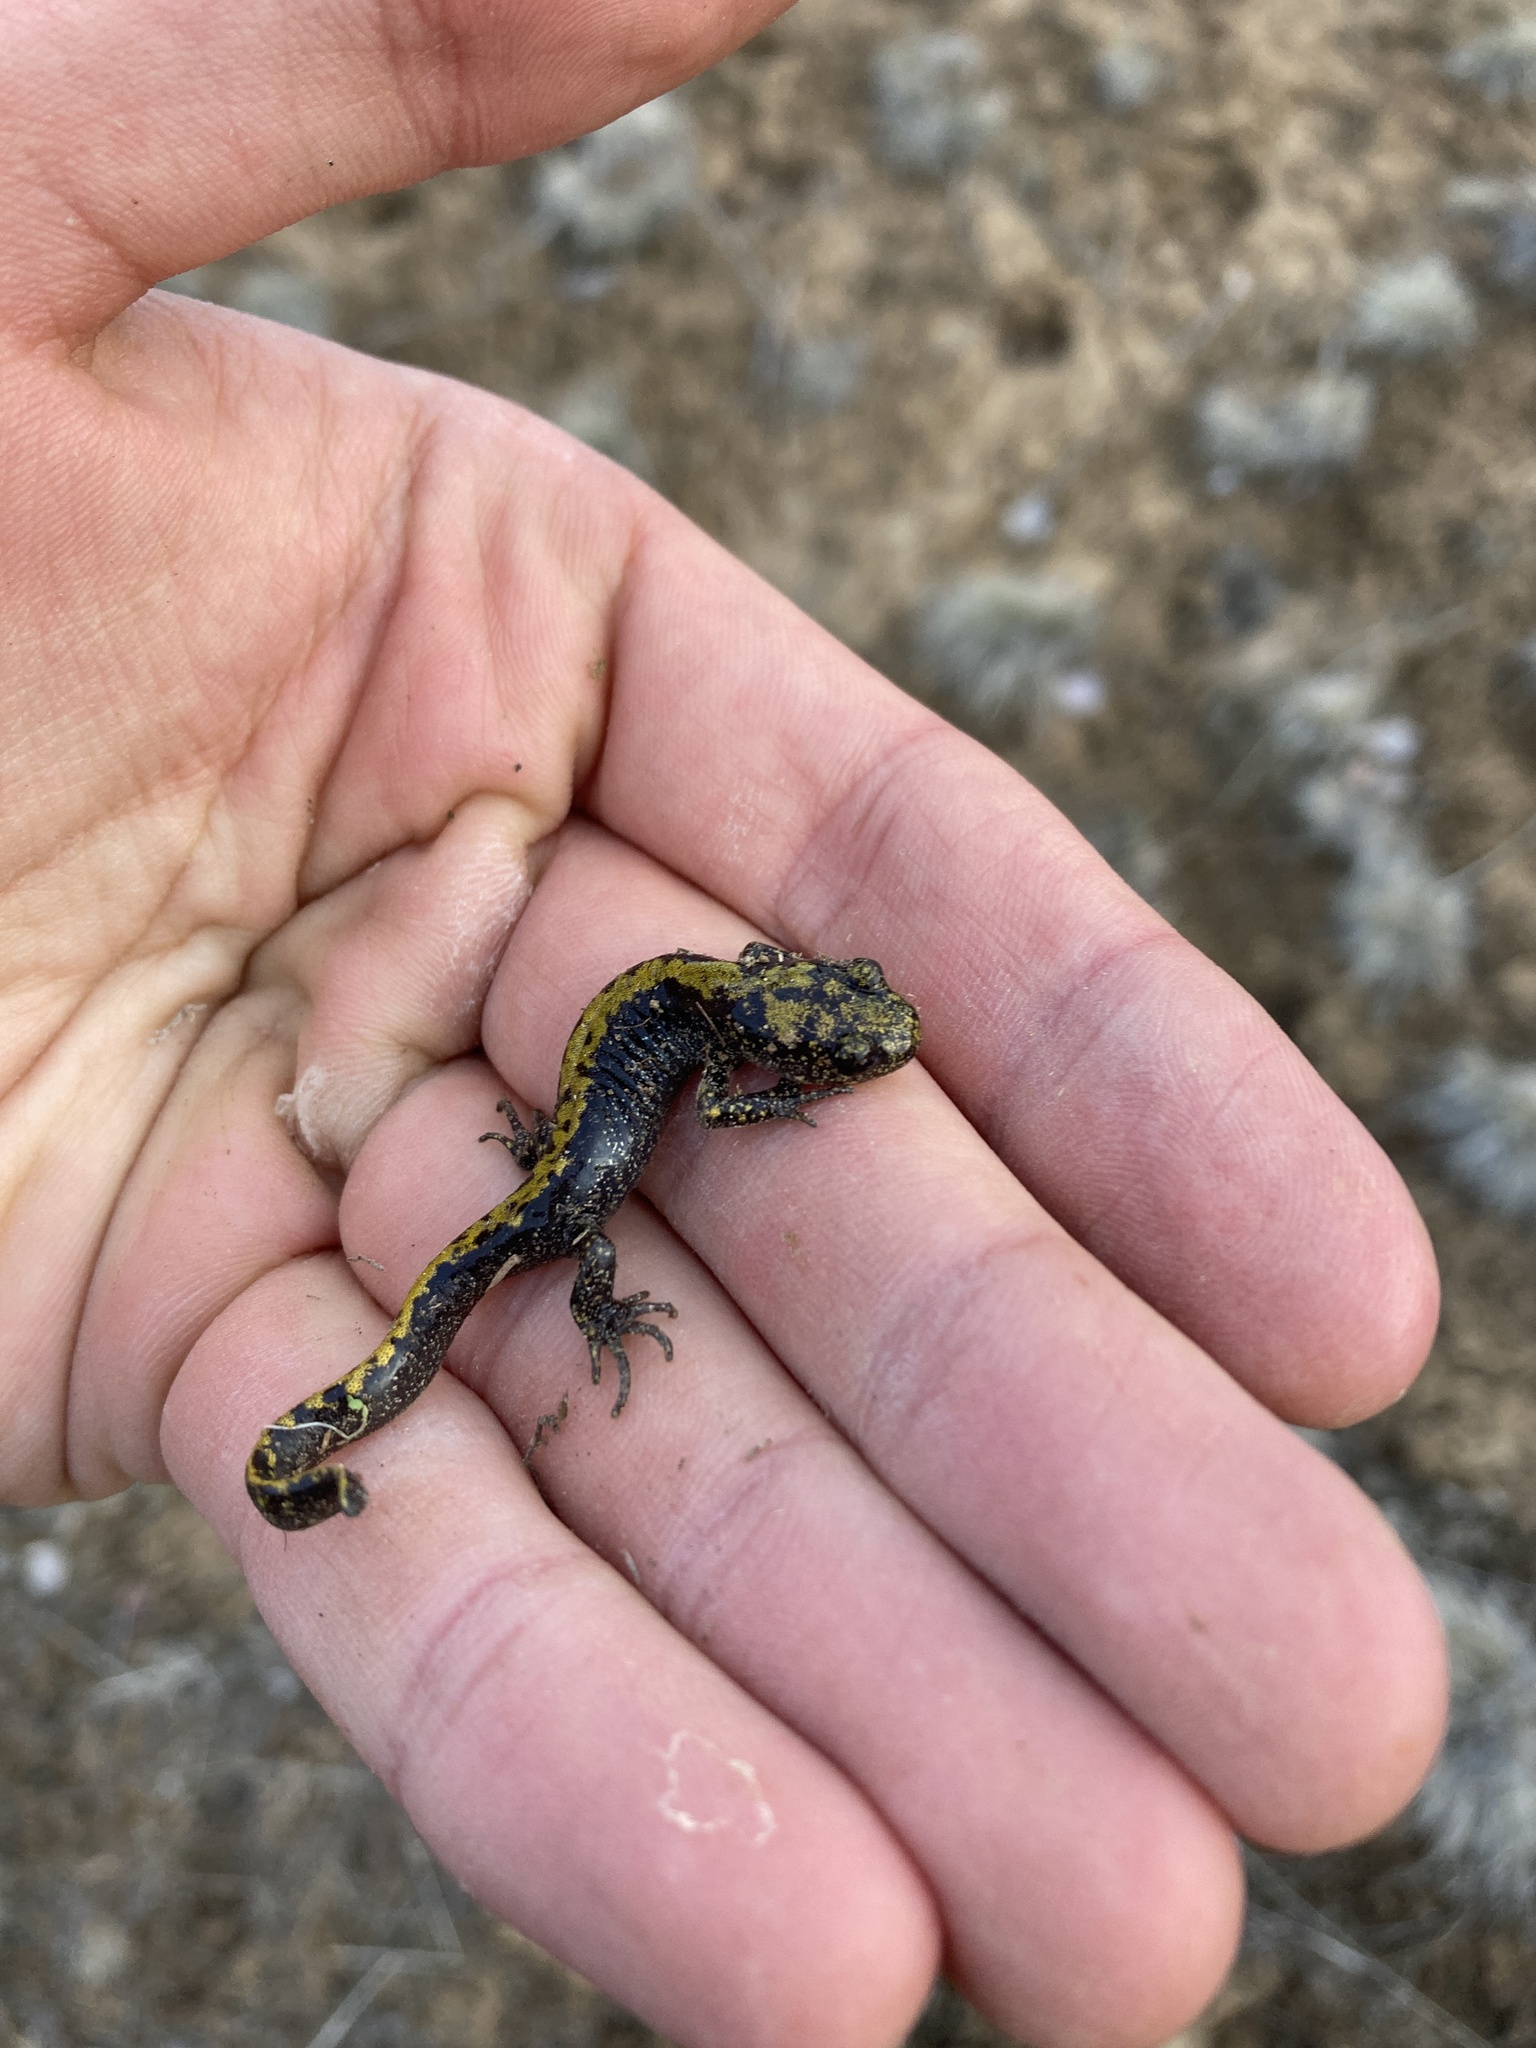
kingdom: Animalia
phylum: Chordata
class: Amphibia
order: Caudata
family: Ambystomatidae
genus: Ambystoma
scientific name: Ambystoma macrodactylum
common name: Long-toed salamander
